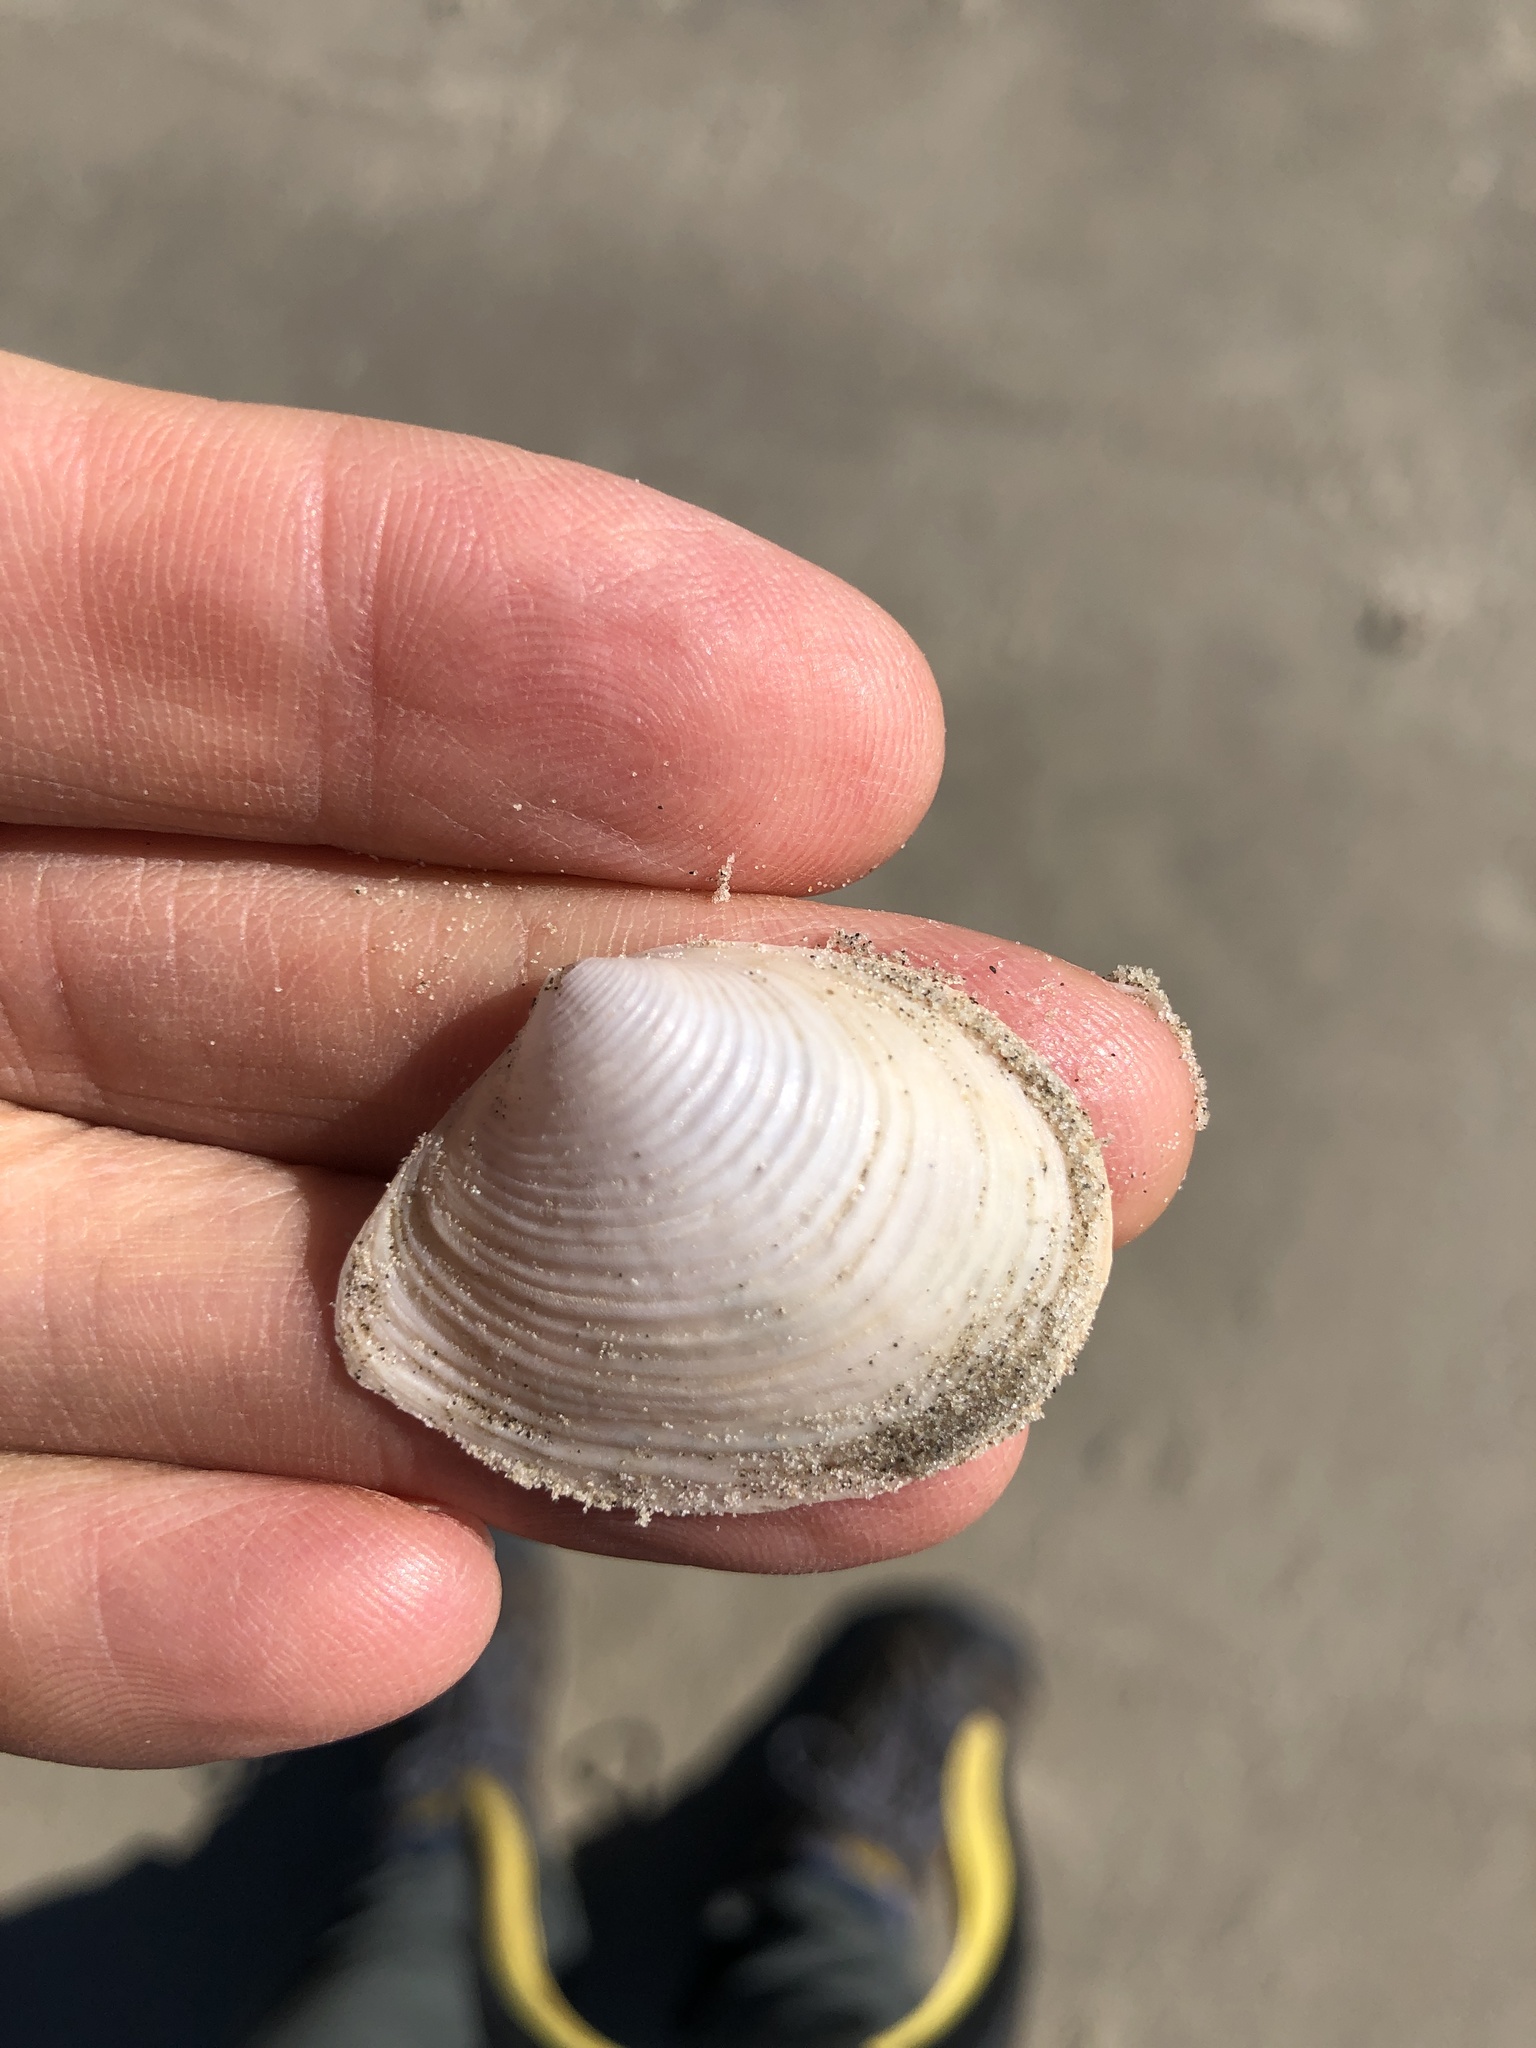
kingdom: Animalia
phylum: Mollusca
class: Bivalvia
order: Venerida
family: Anatinellidae
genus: Raeta
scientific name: Raeta plicatella
